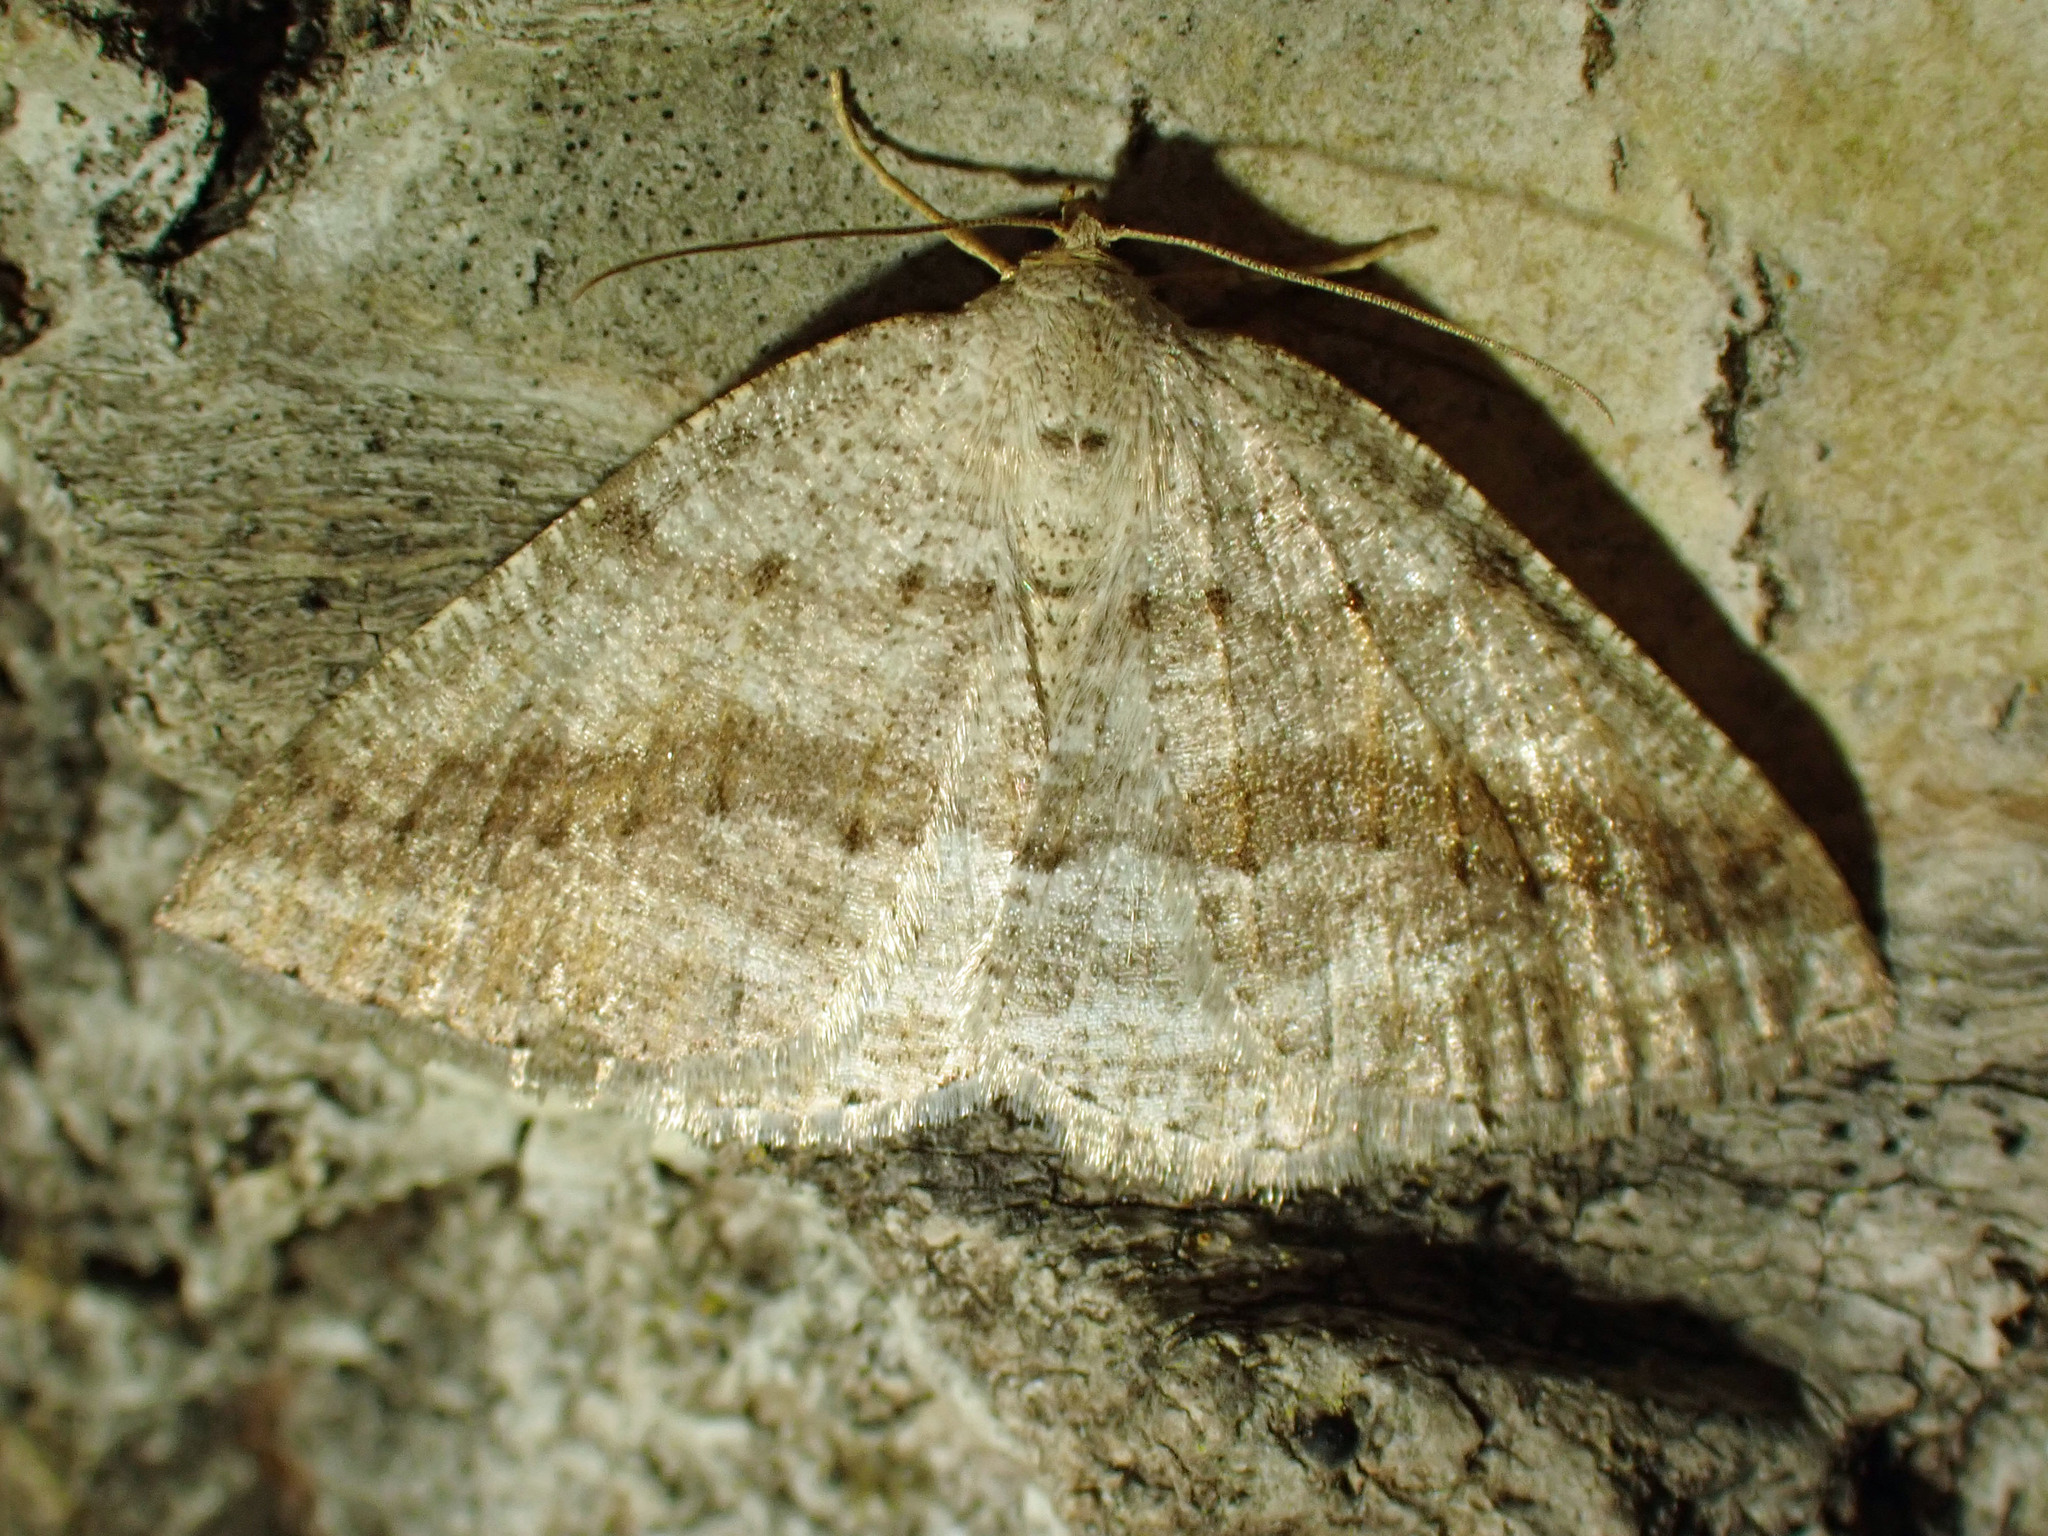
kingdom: Animalia
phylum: Arthropoda
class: Insecta
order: Lepidoptera
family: Geometridae
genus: Tacparia
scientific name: Tacparia detersata
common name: Pale alder moth
